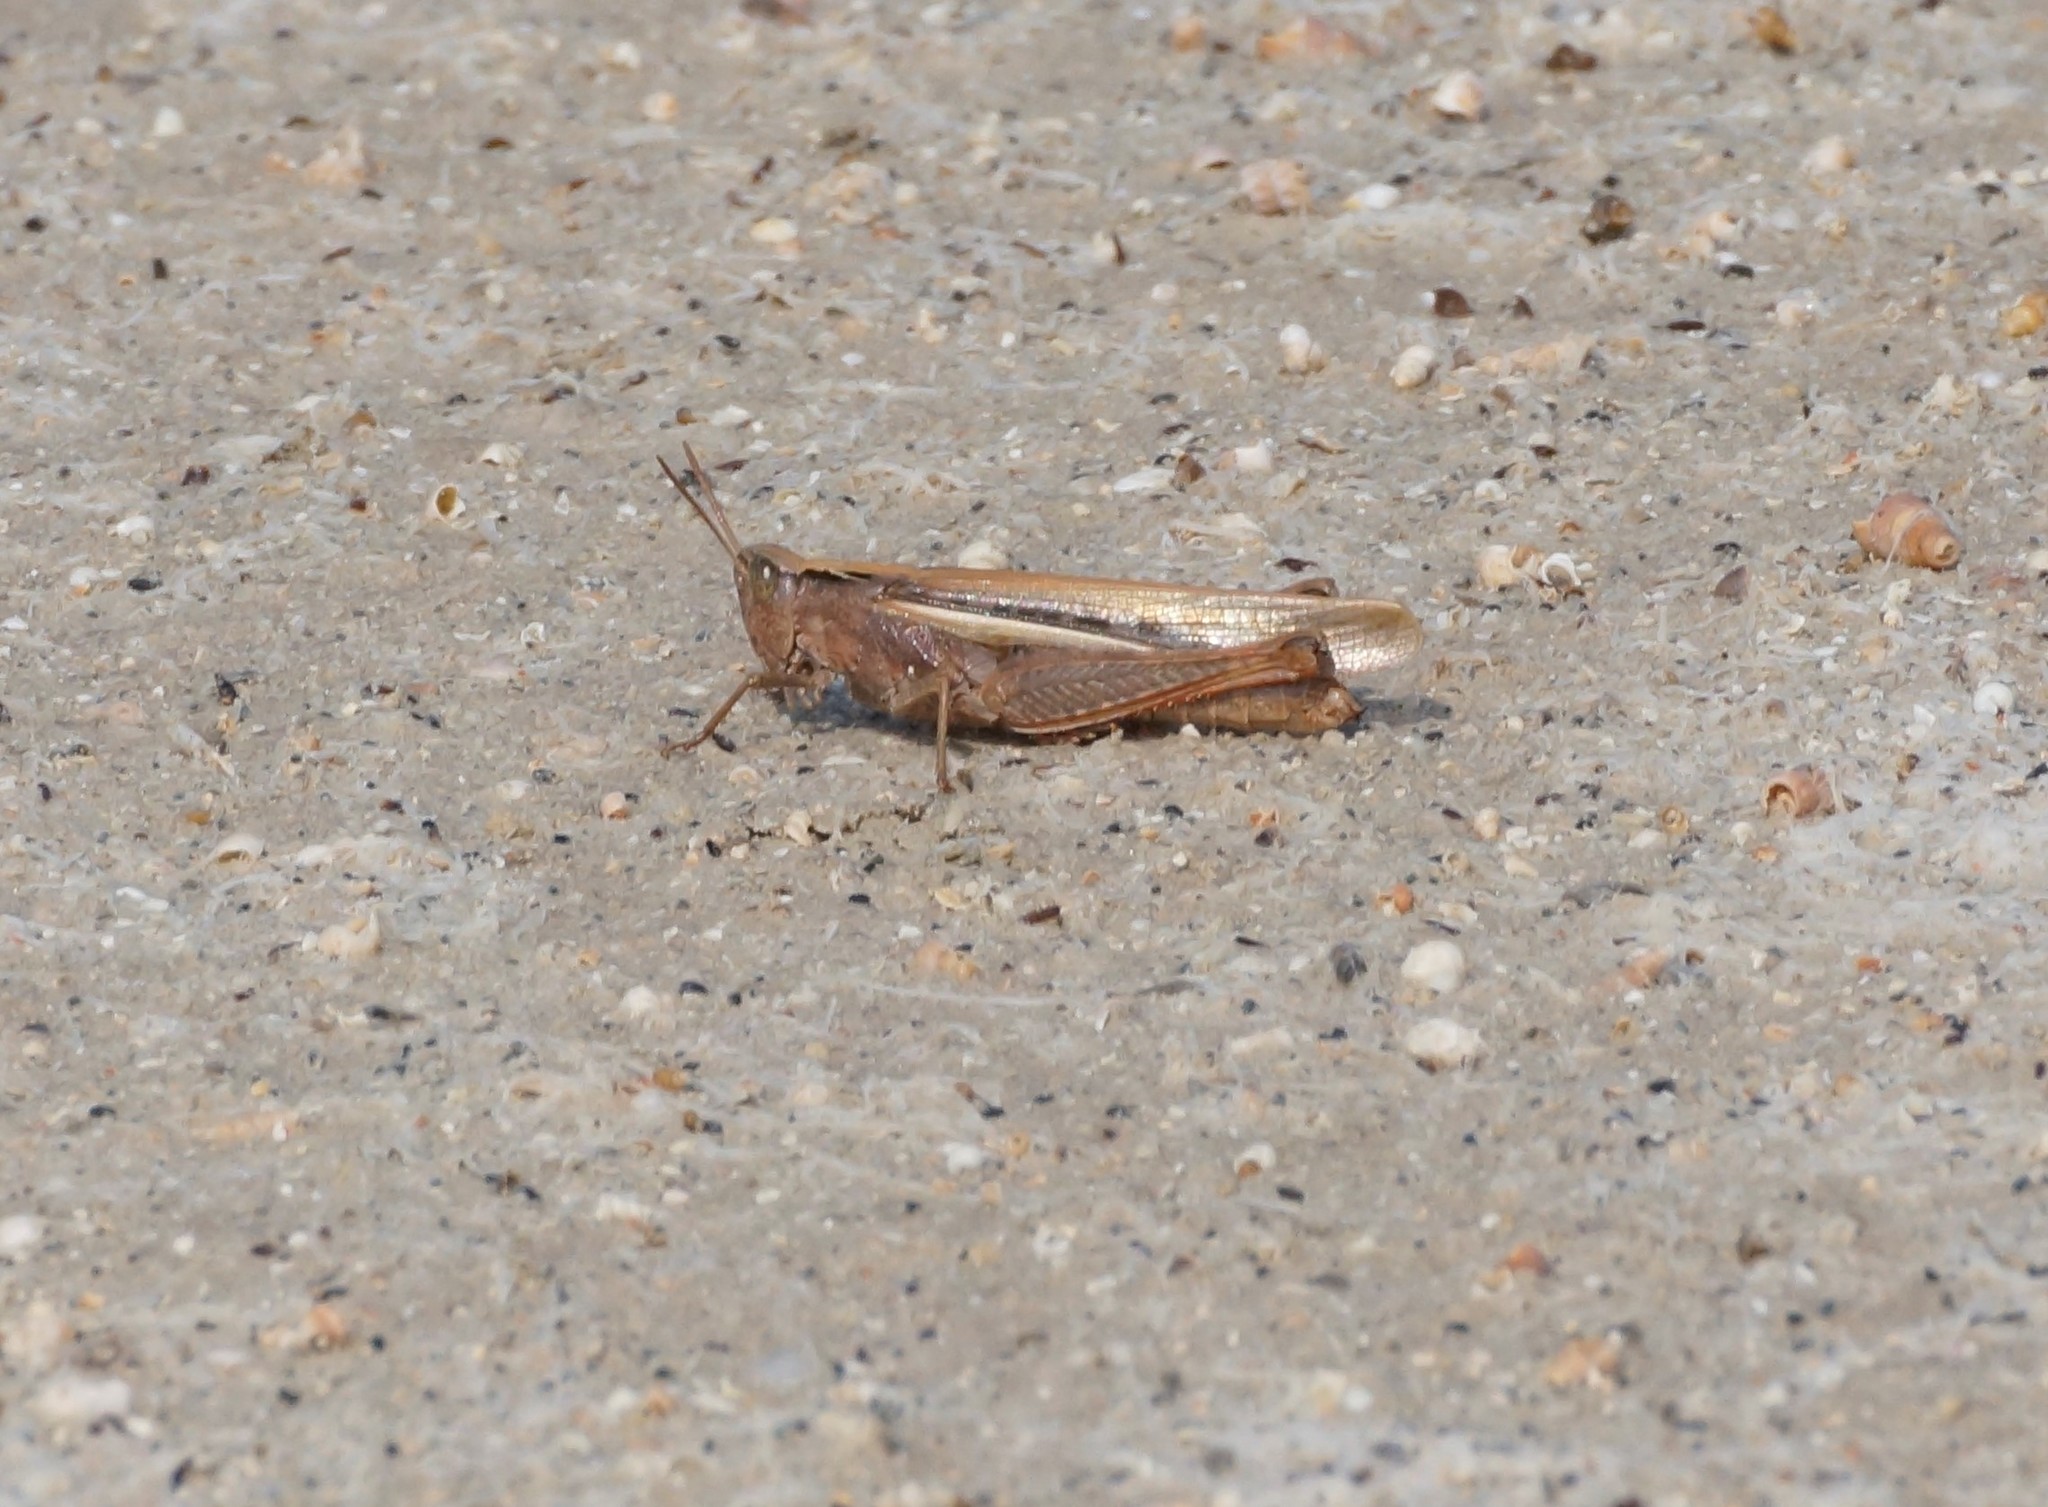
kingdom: Animalia
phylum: Arthropoda
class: Insecta
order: Orthoptera
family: Acrididae
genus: Schizobothrus
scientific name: Schizobothrus flavovittatus
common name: Disappearing grasshopper
